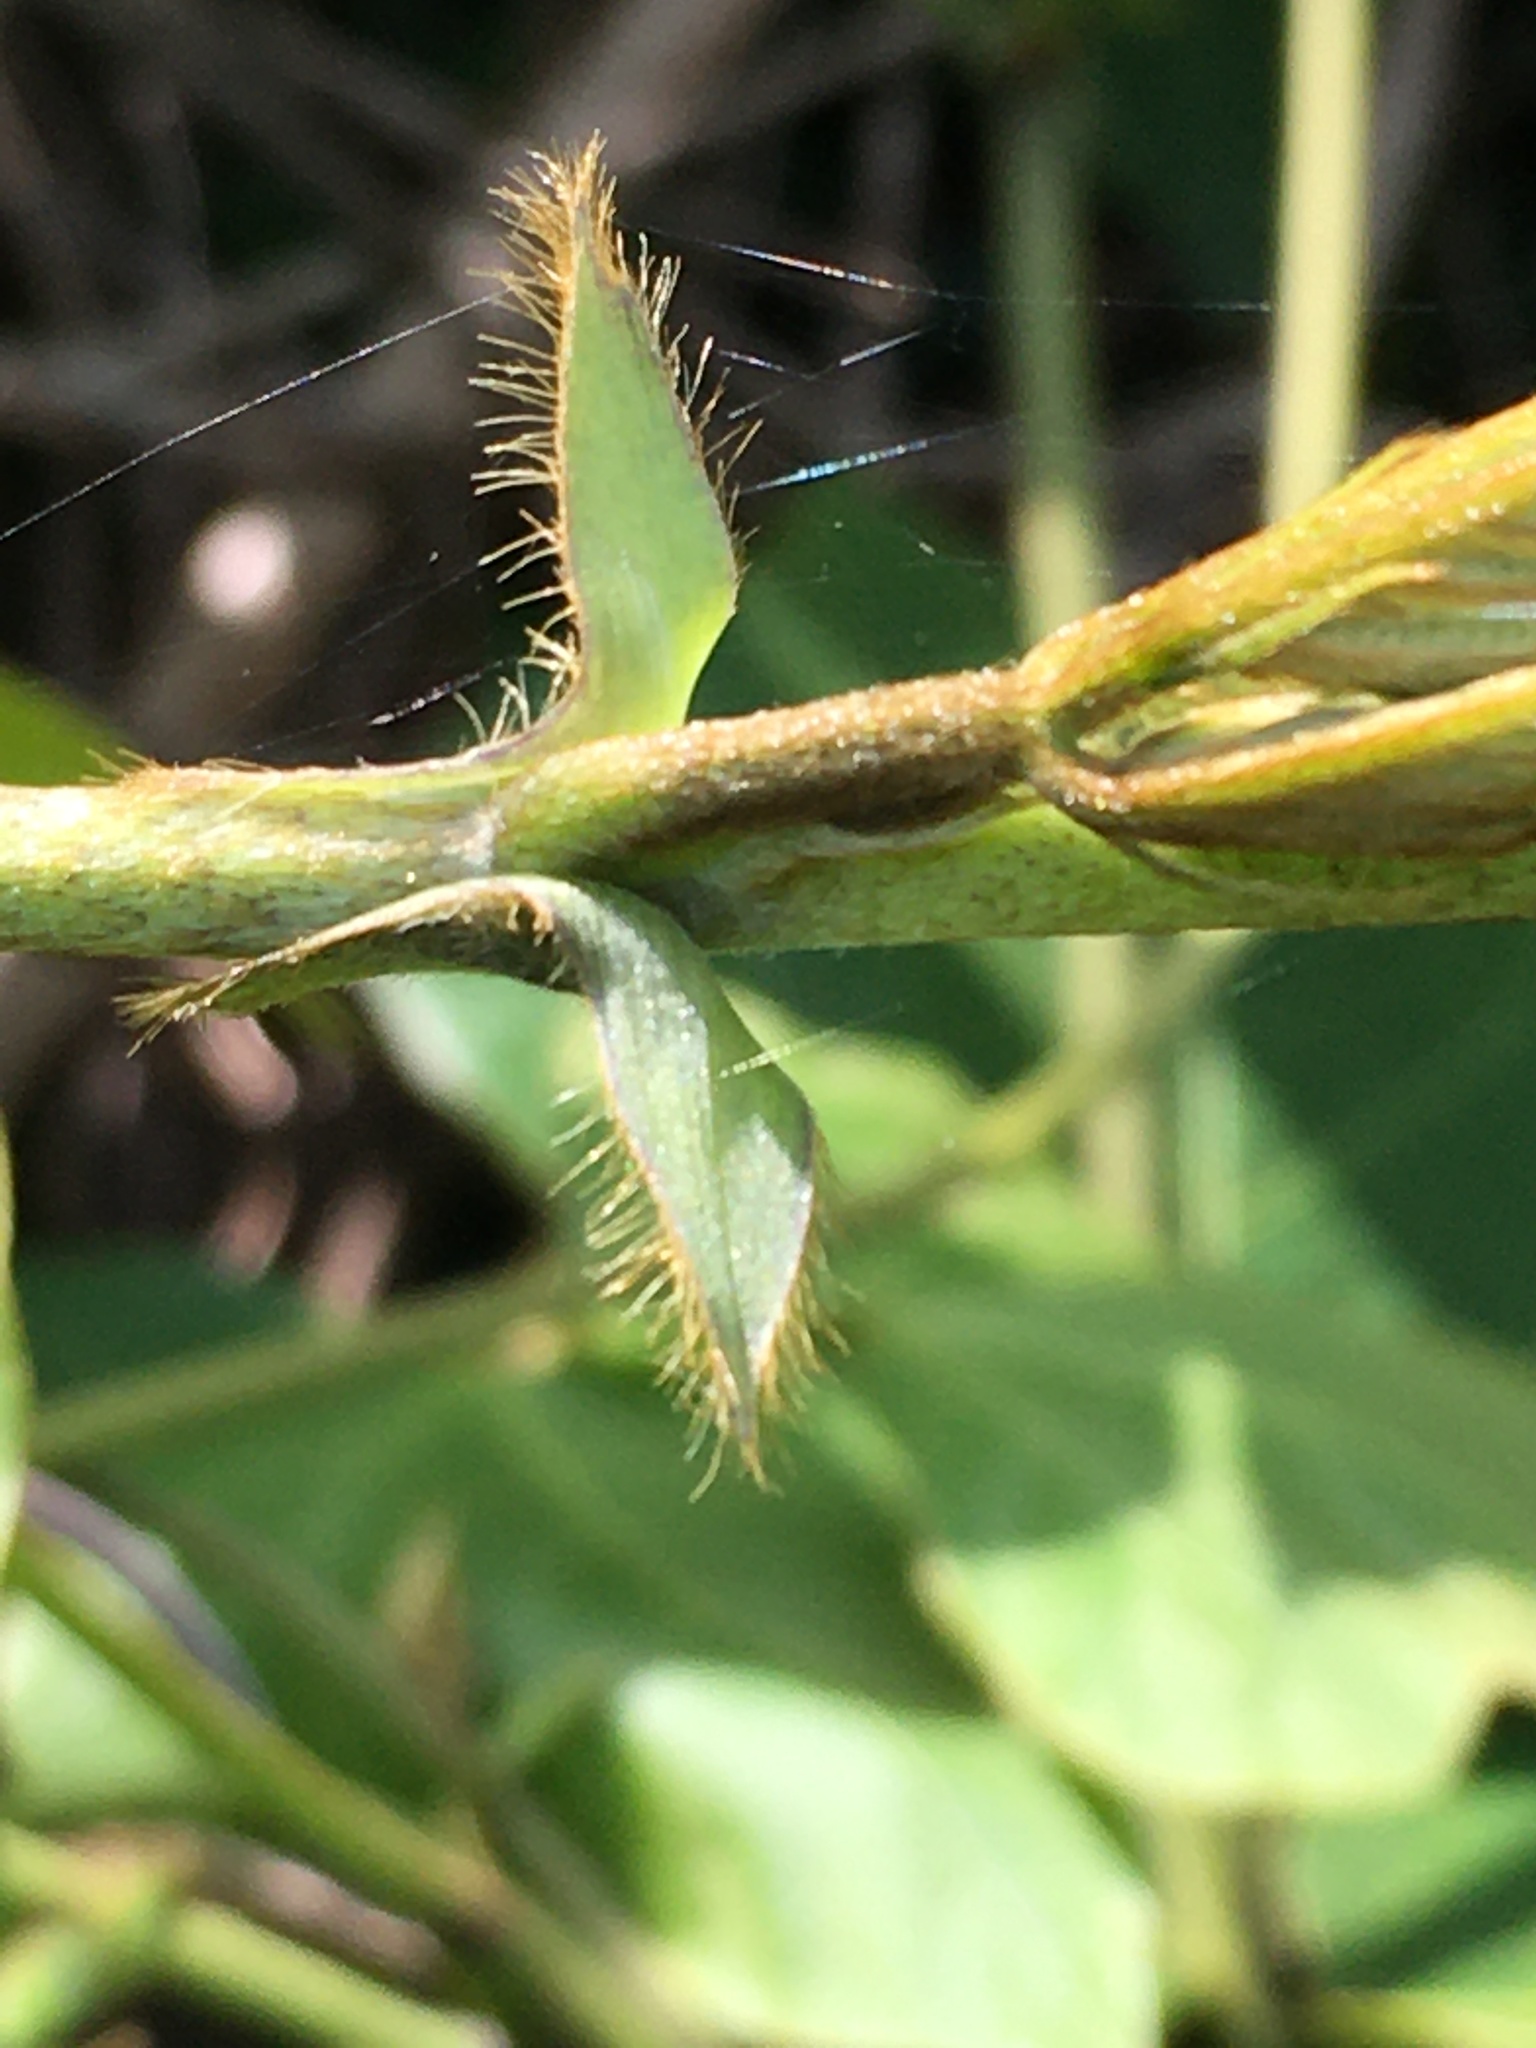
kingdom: Plantae
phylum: Tracheophyta
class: Magnoliopsida
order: Fabales
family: Fabaceae
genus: Pueraria
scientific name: Pueraria montana
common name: Kudzu
